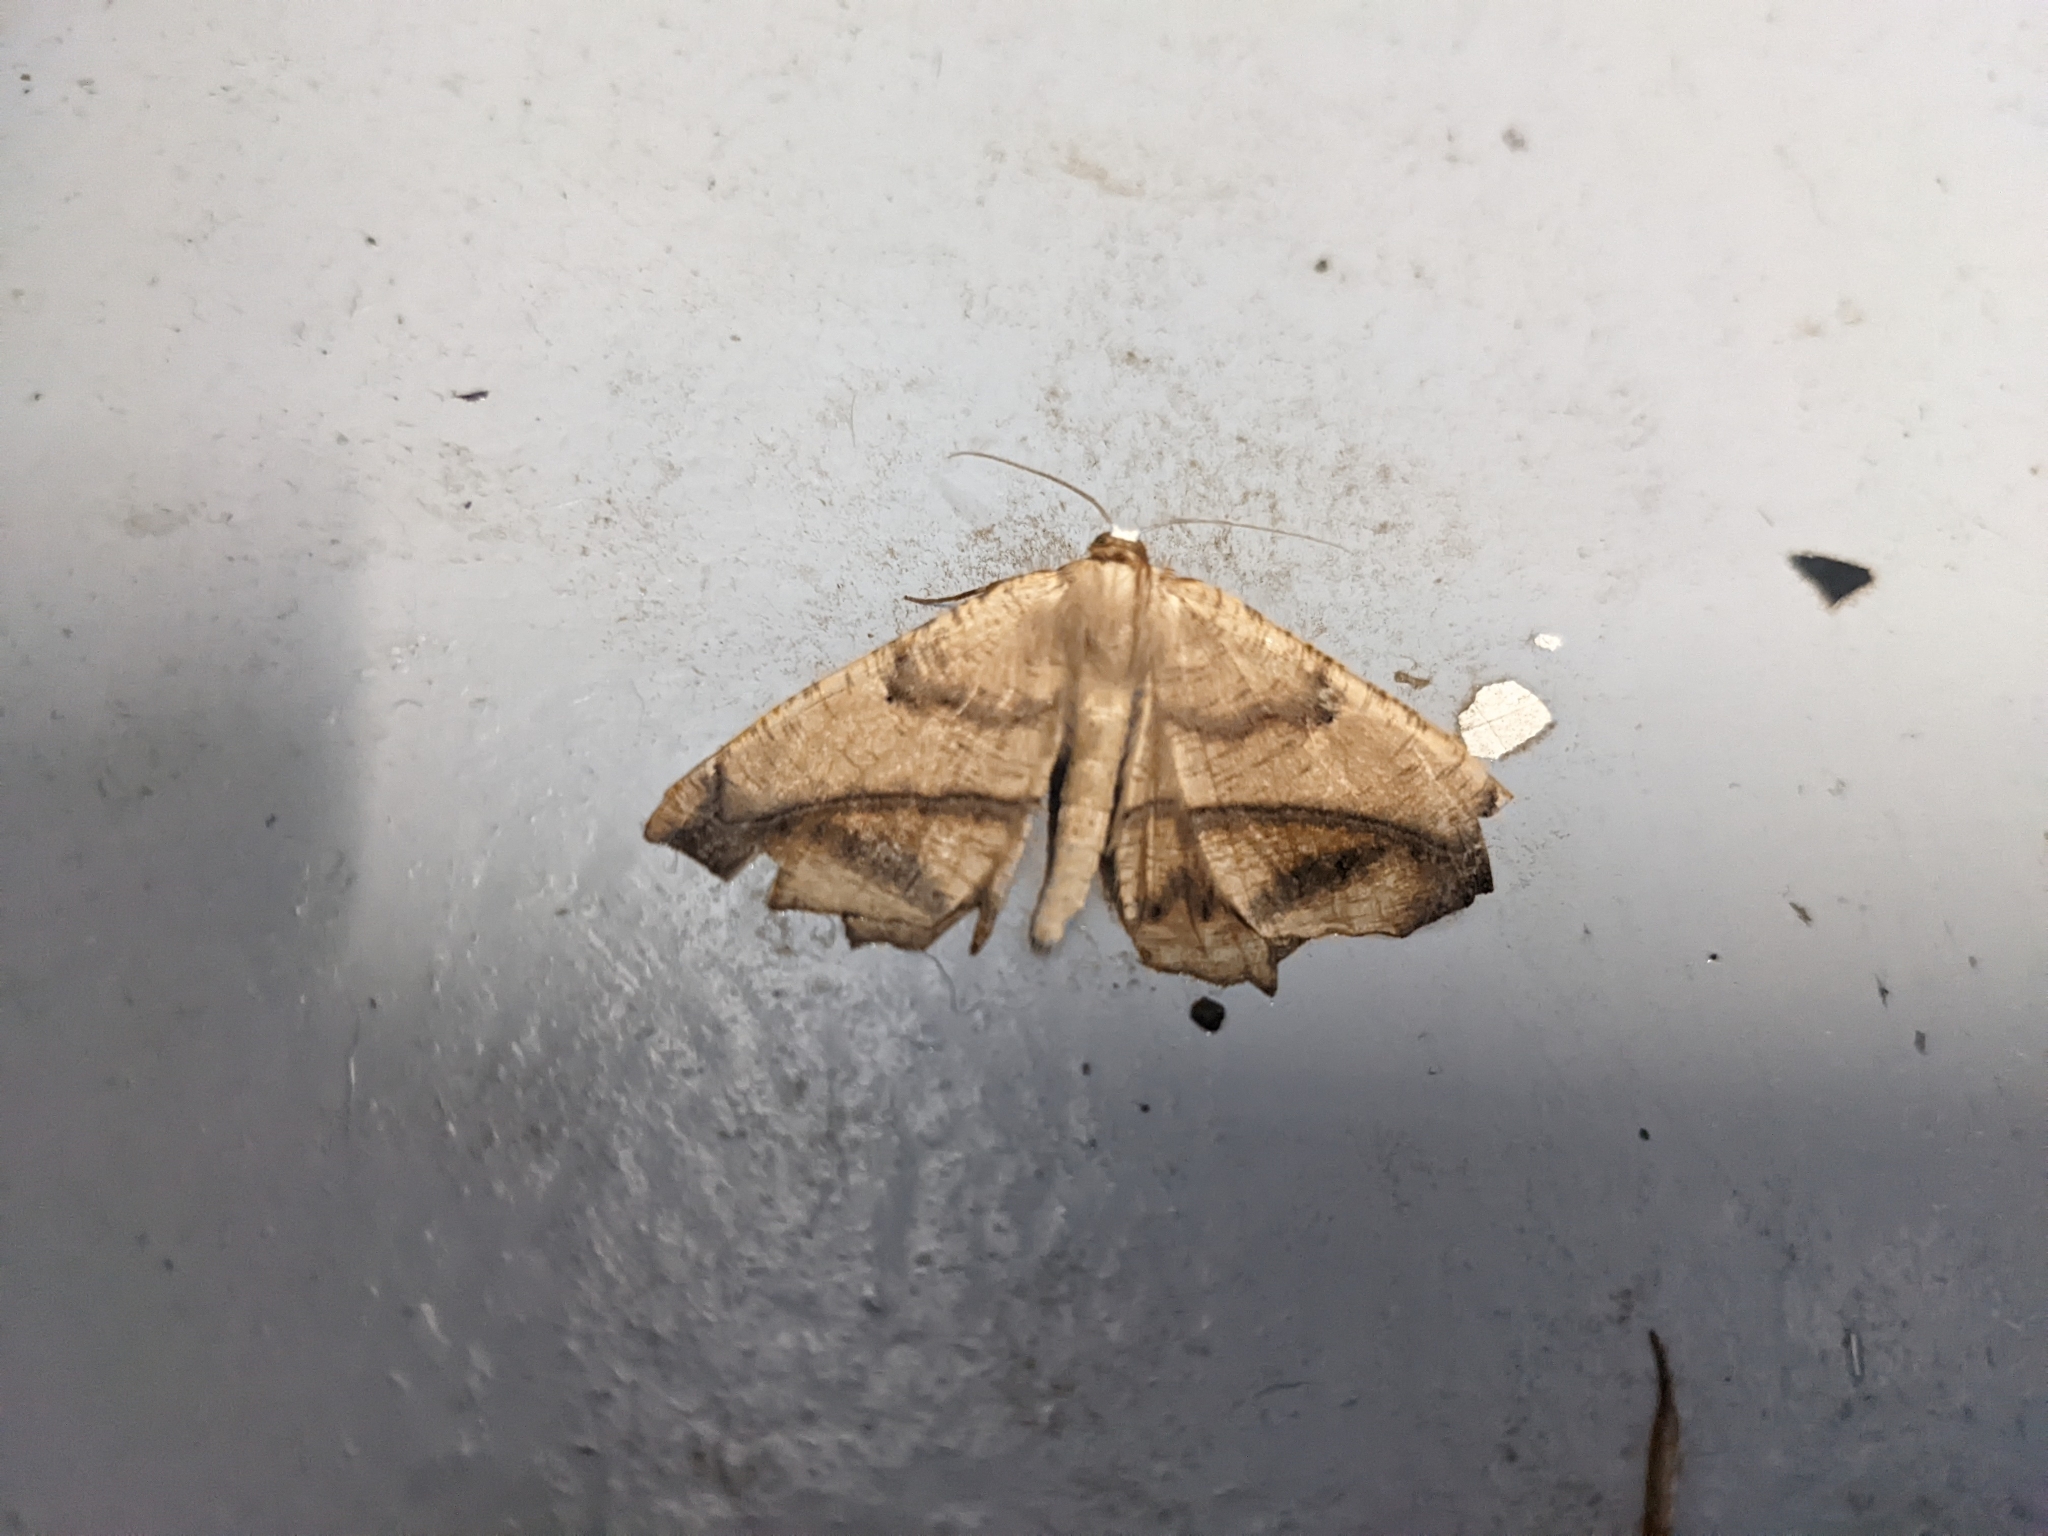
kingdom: Animalia
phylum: Arthropoda
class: Insecta
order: Lepidoptera
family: Geometridae
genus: Prochoerodes
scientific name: Prochoerodes lineola
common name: Large maple spanworm
